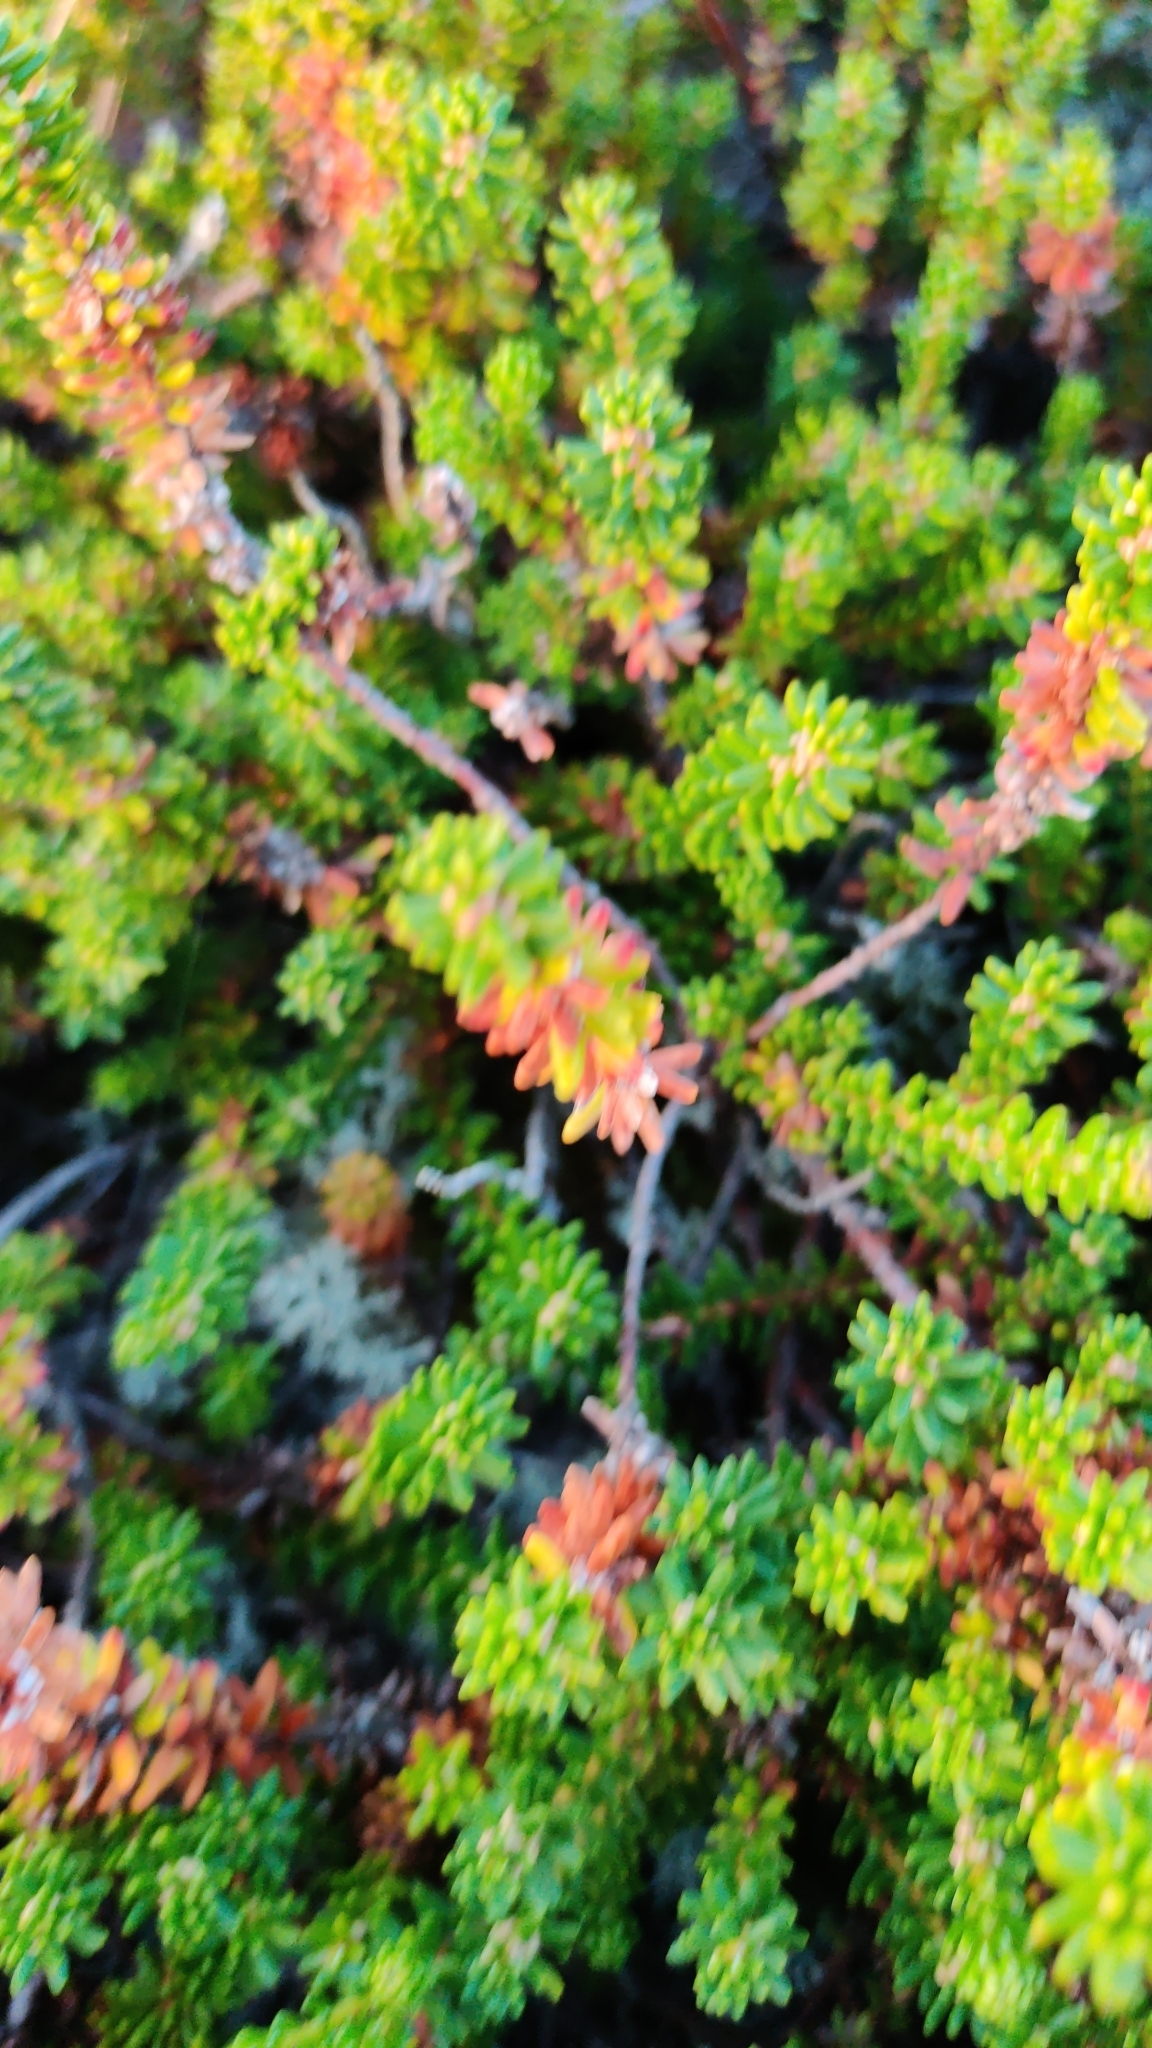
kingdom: Plantae
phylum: Tracheophyta
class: Magnoliopsida
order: Ericales
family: Ericaceae
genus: Empetrum
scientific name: Empetrum nigrum
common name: Black crowberry
